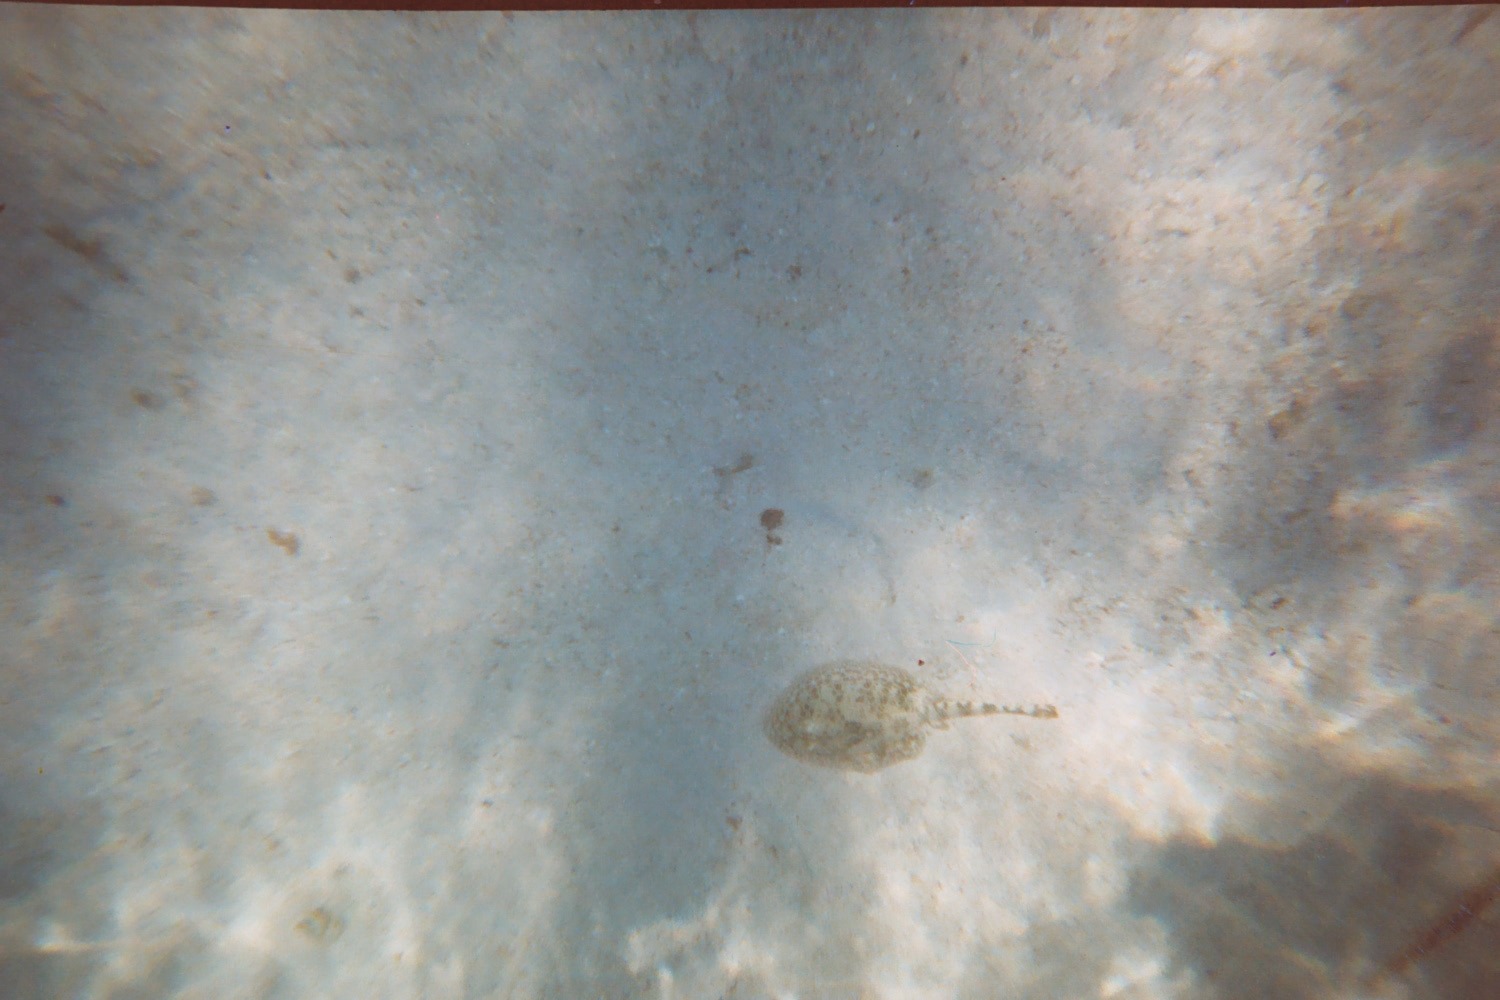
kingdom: Animalia
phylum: Chordata
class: Elasmobranchii
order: Myliobatiformes
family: Urotrygonidae
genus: Urobatis
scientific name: Urobatis jamaicensis
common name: Yellow stingray
